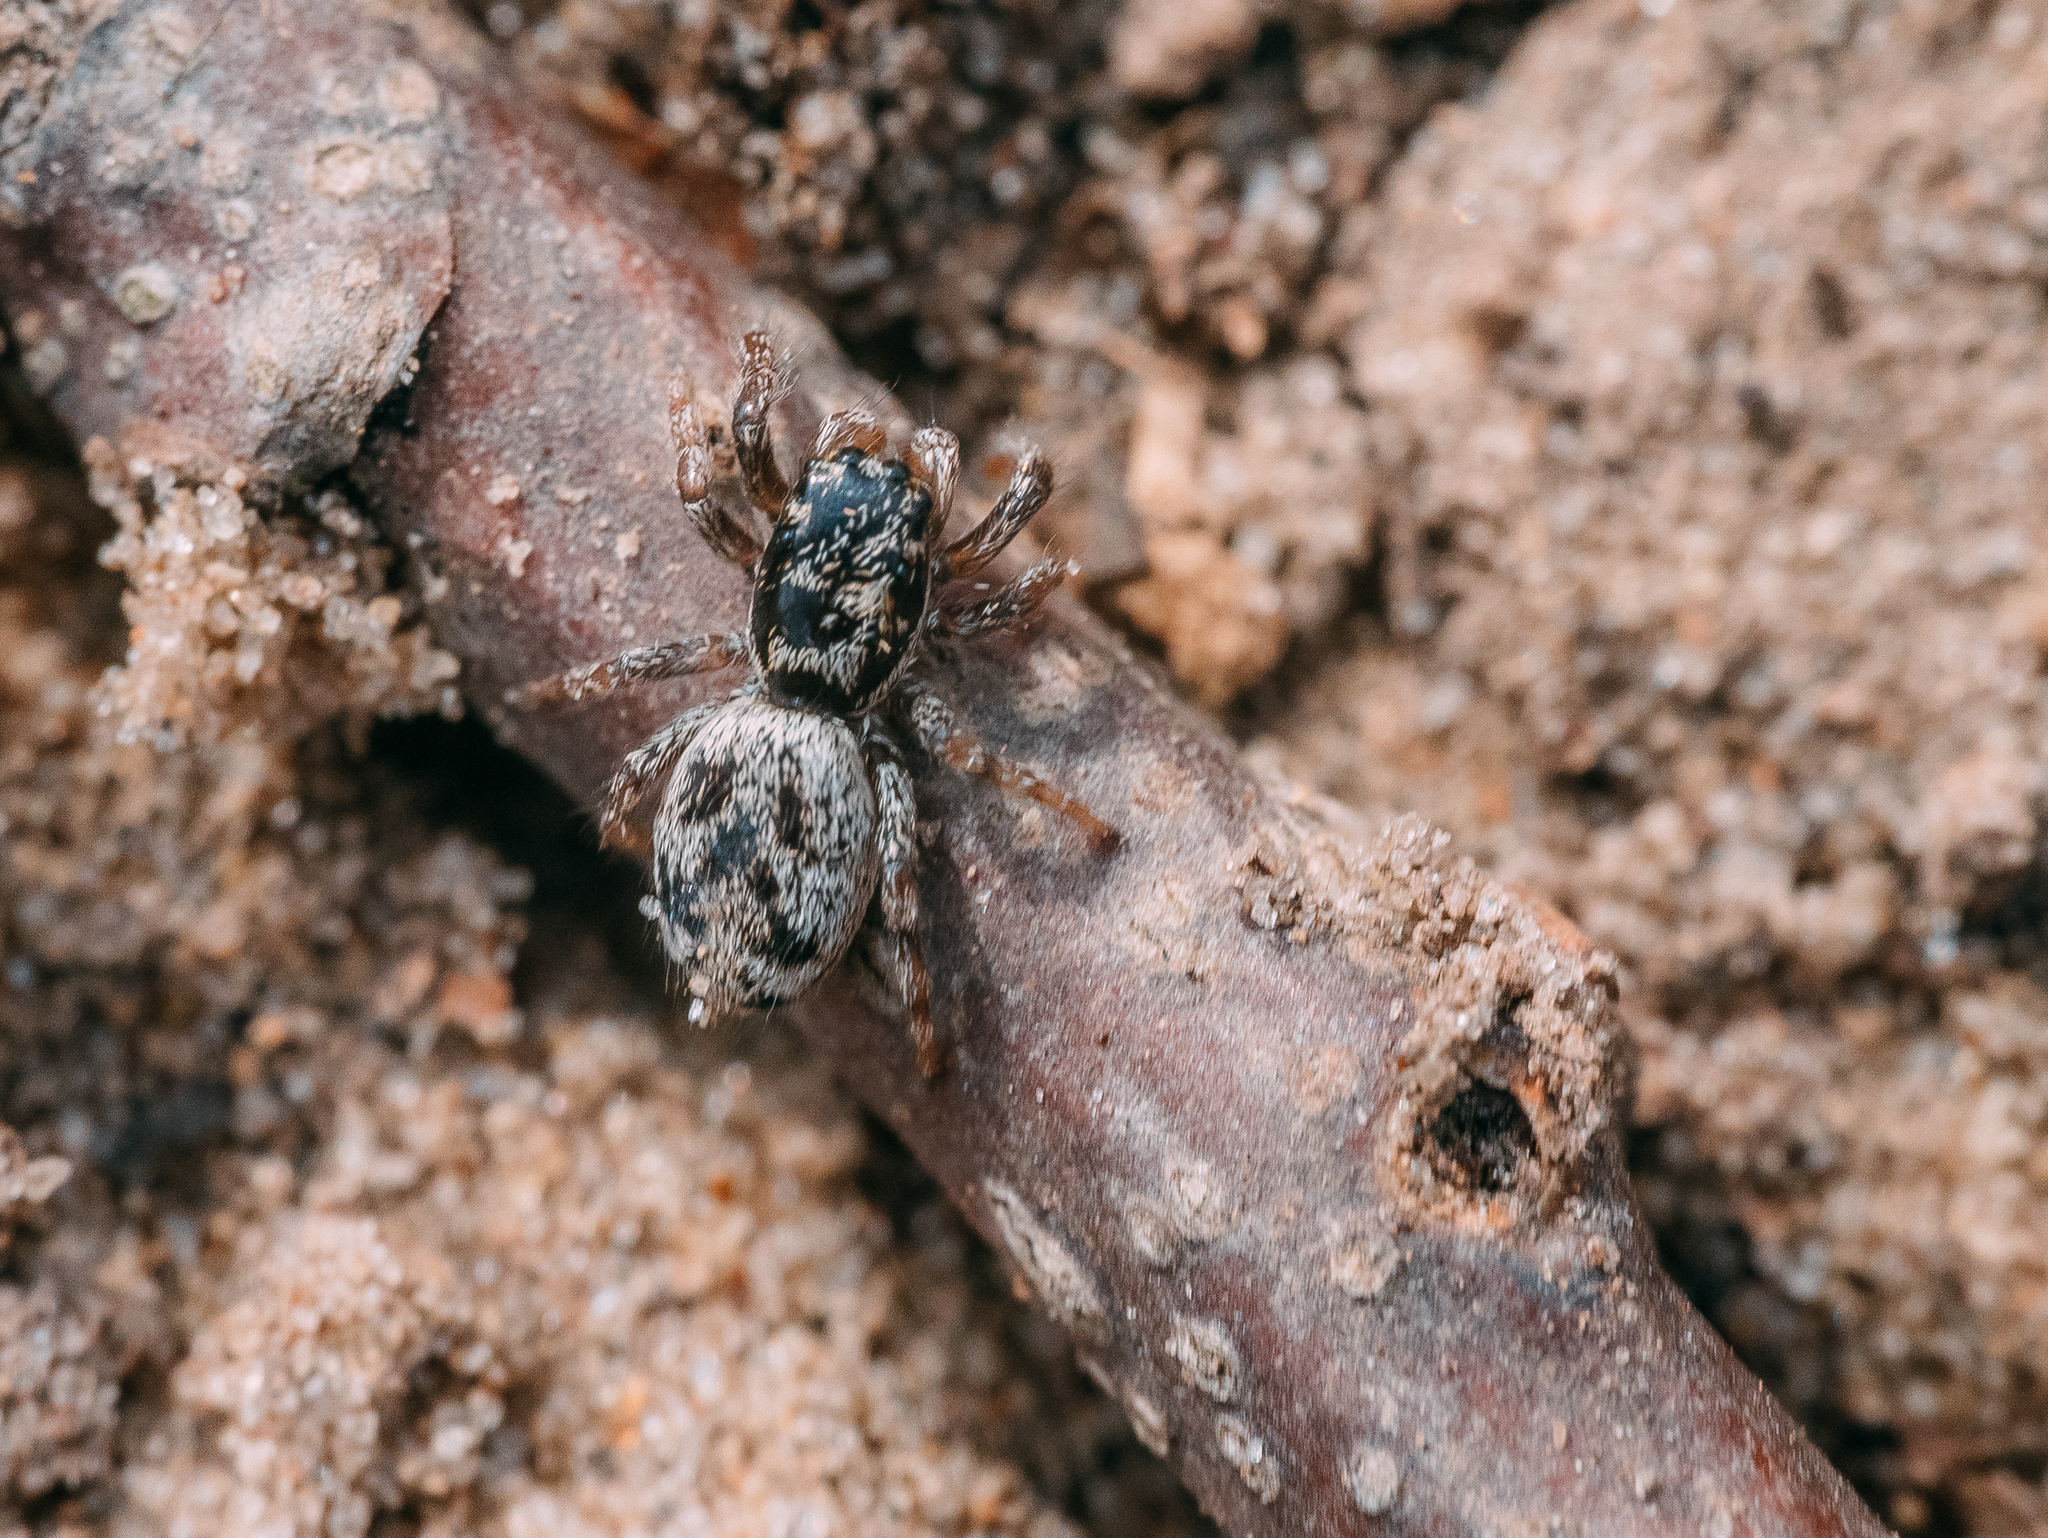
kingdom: Animalia
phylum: Arthropoda
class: Arachnida
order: Araneae
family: Salticidae
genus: Salticus
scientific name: Salticus cingulatus
